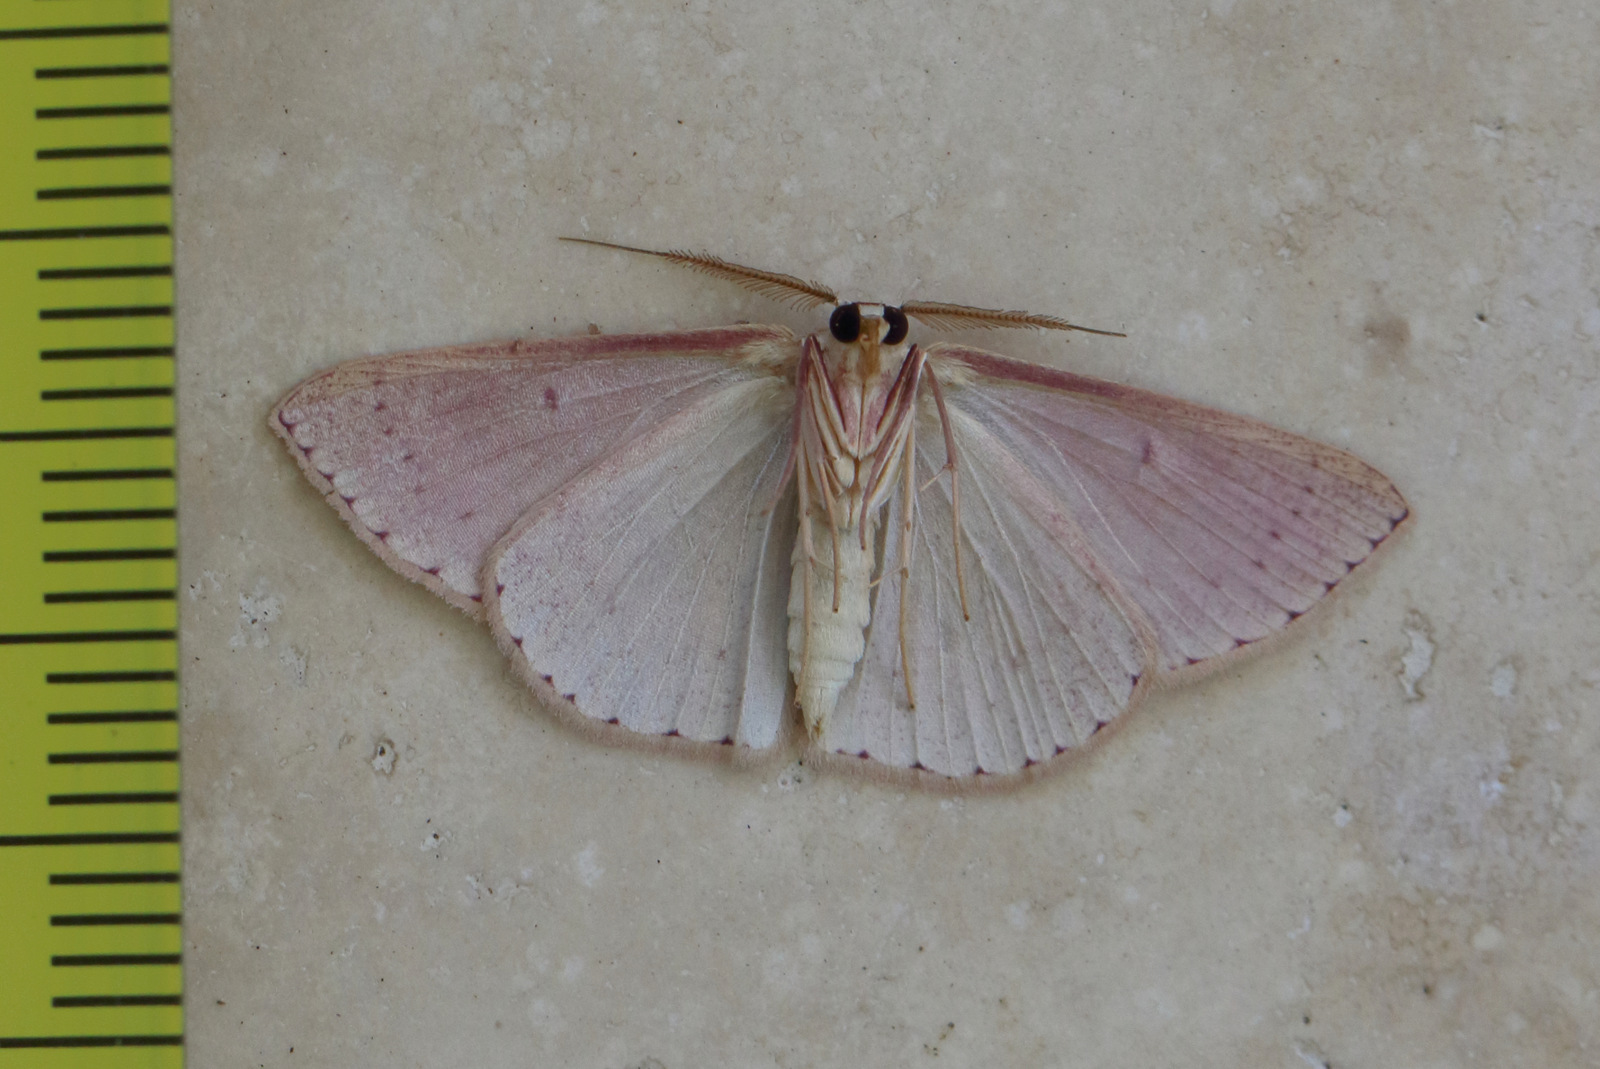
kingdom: Animalia
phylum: Arthropoda
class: Insecta
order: Lepidoptera
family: Geometridae
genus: Cyclophora
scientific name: Cyclophora obstataria
